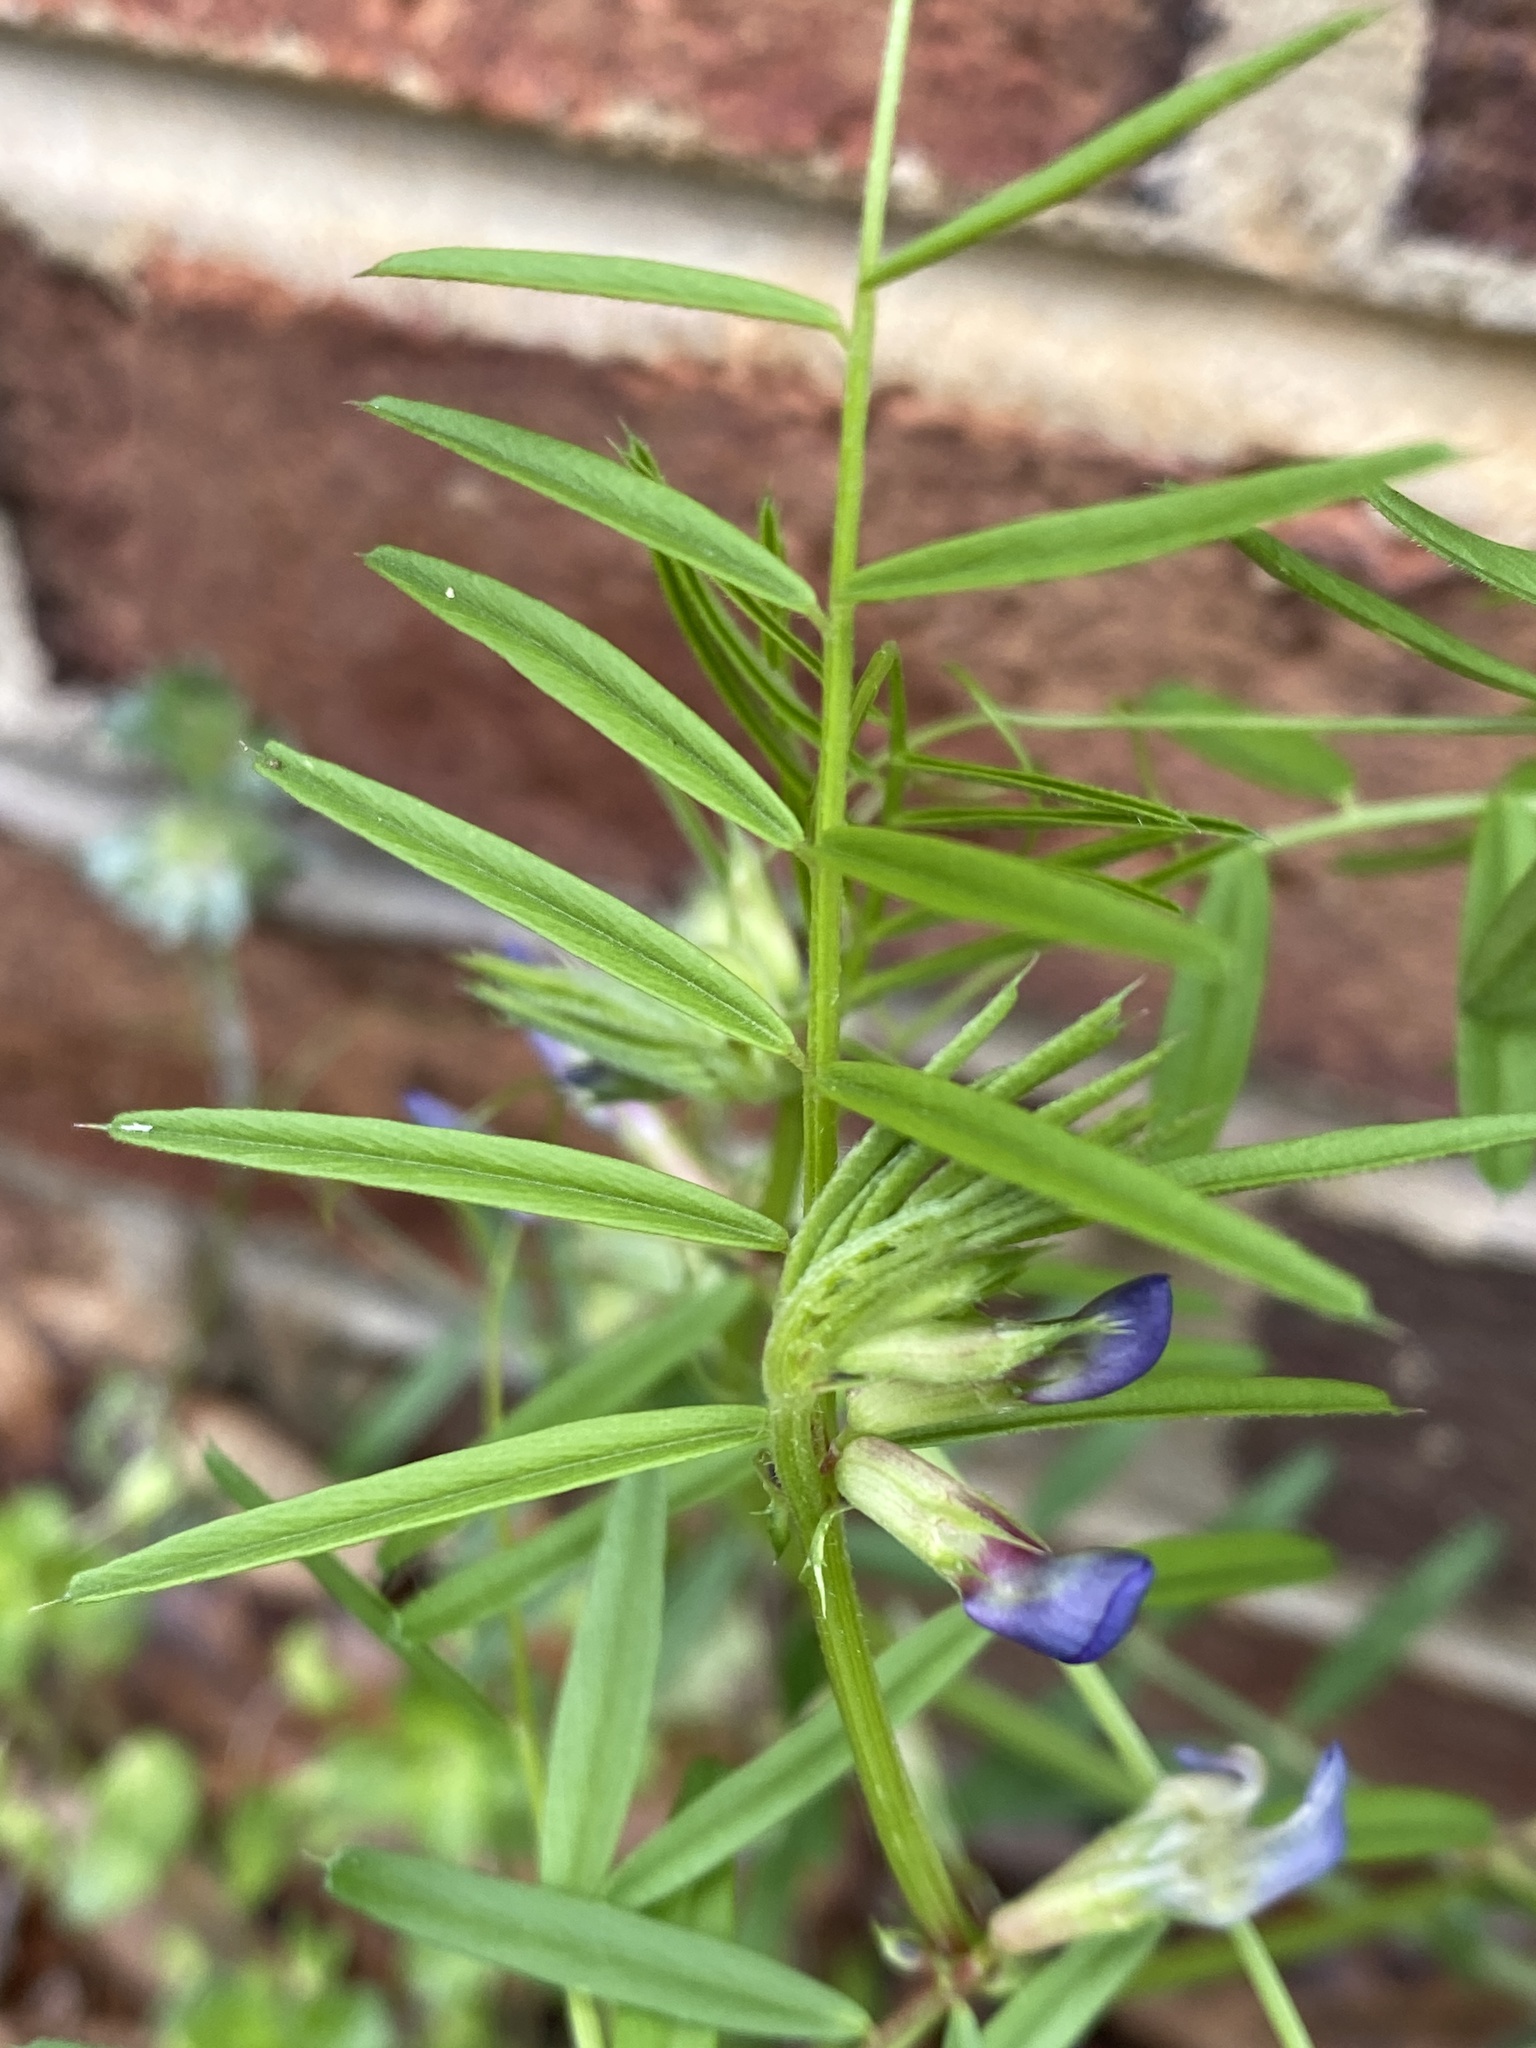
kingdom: Plantae
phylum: Tracheophyta
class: Magnoliopsida
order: Fabales
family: Fabaceae
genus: Vicia
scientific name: Vicia sativa
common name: Garden vetch
